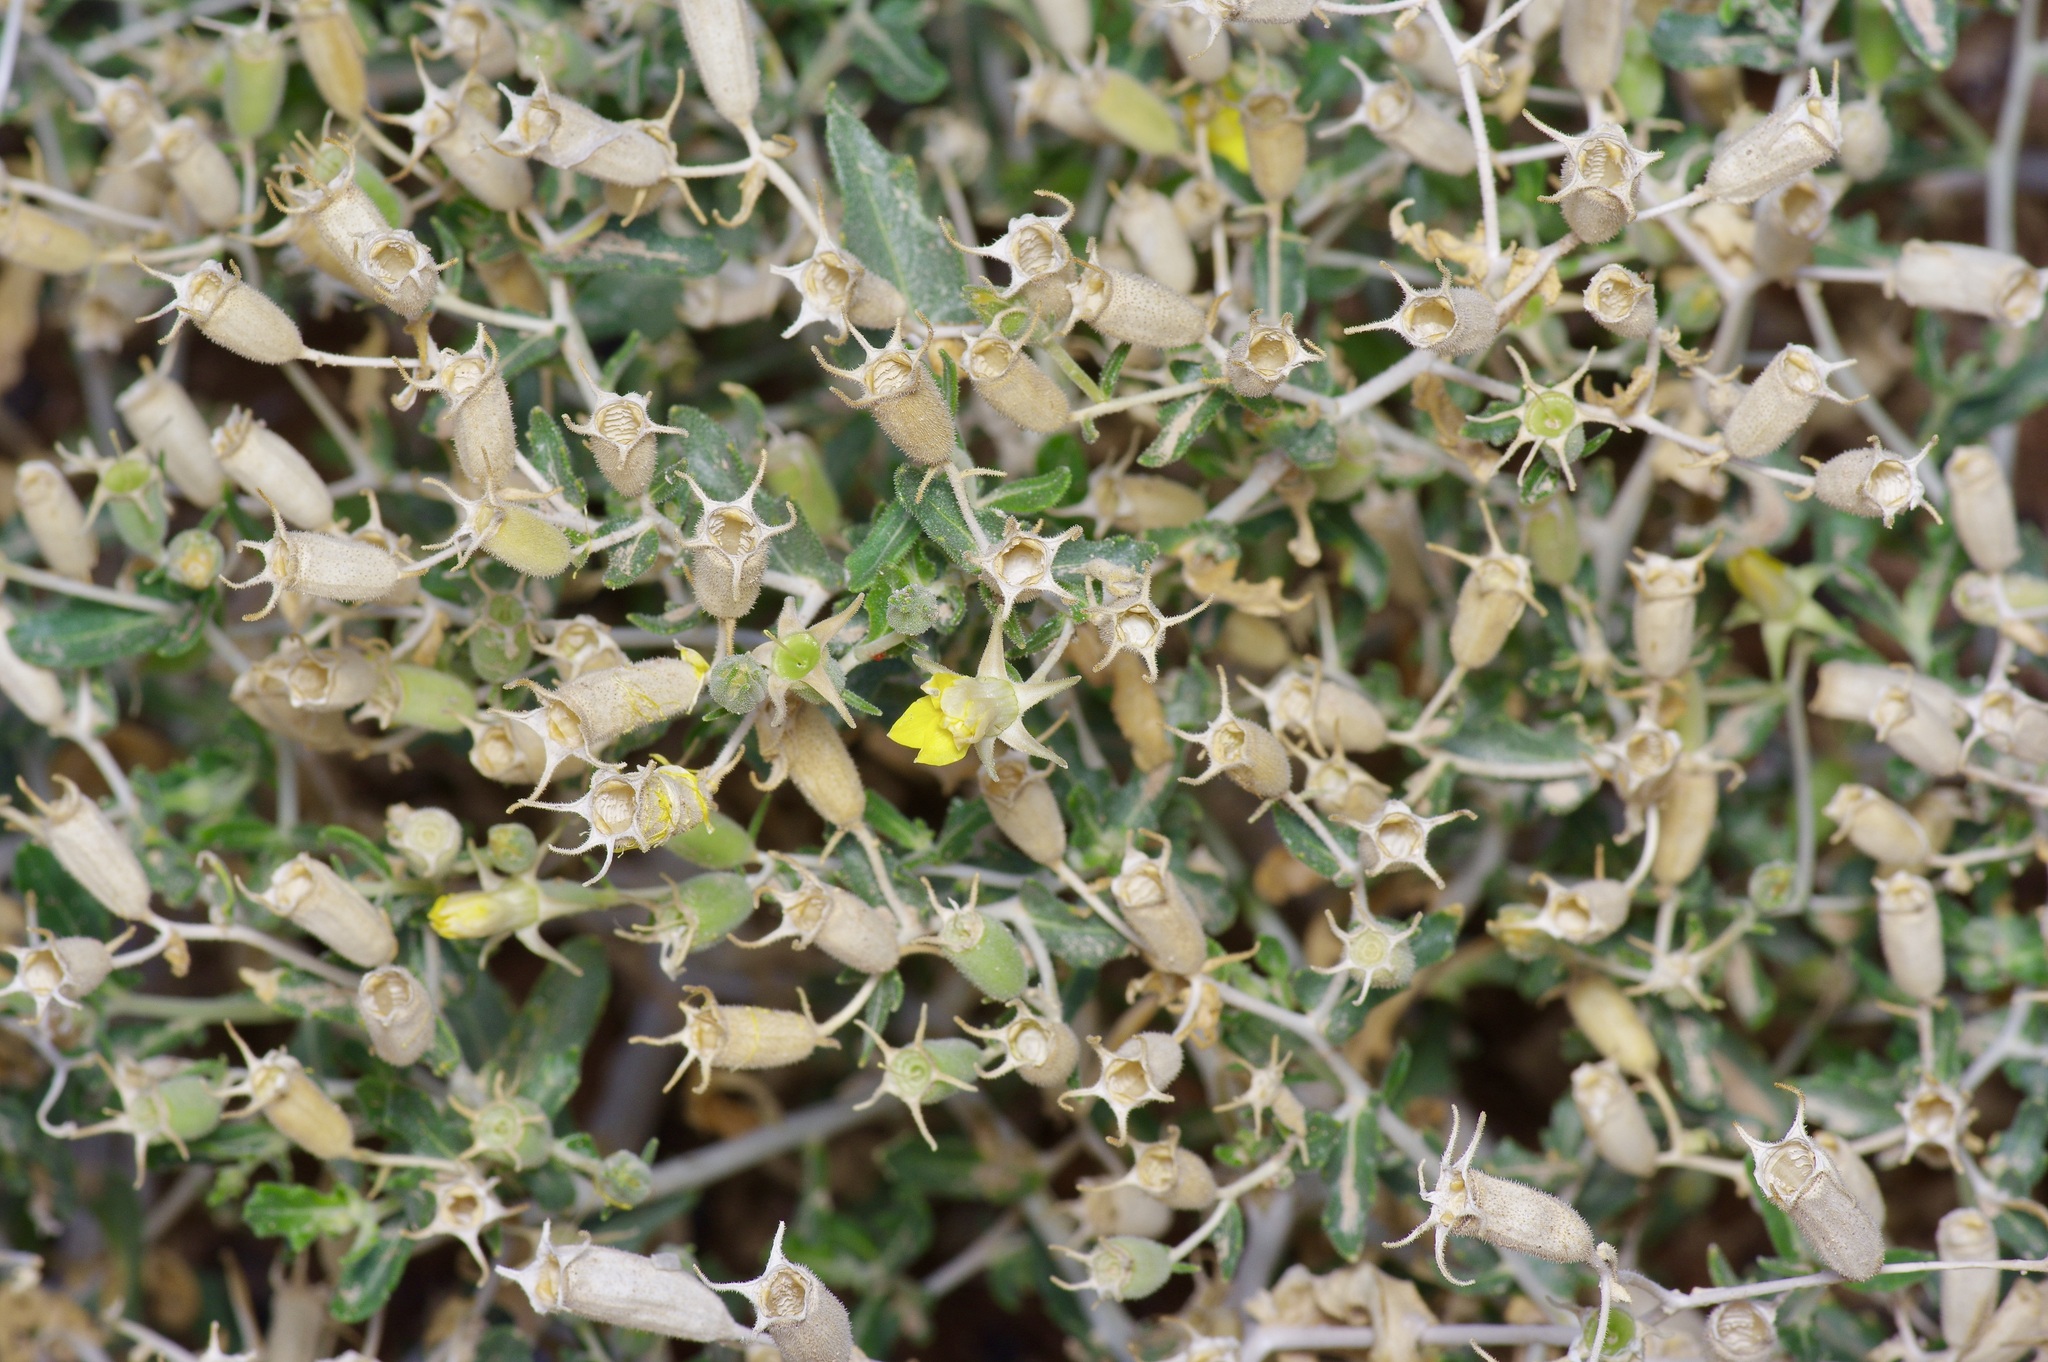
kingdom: Plantae
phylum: Tracheophyta
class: Magnoliopsida
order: Cornales
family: Loasaceae
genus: Mentzelia
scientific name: Mentzelia mexicana
